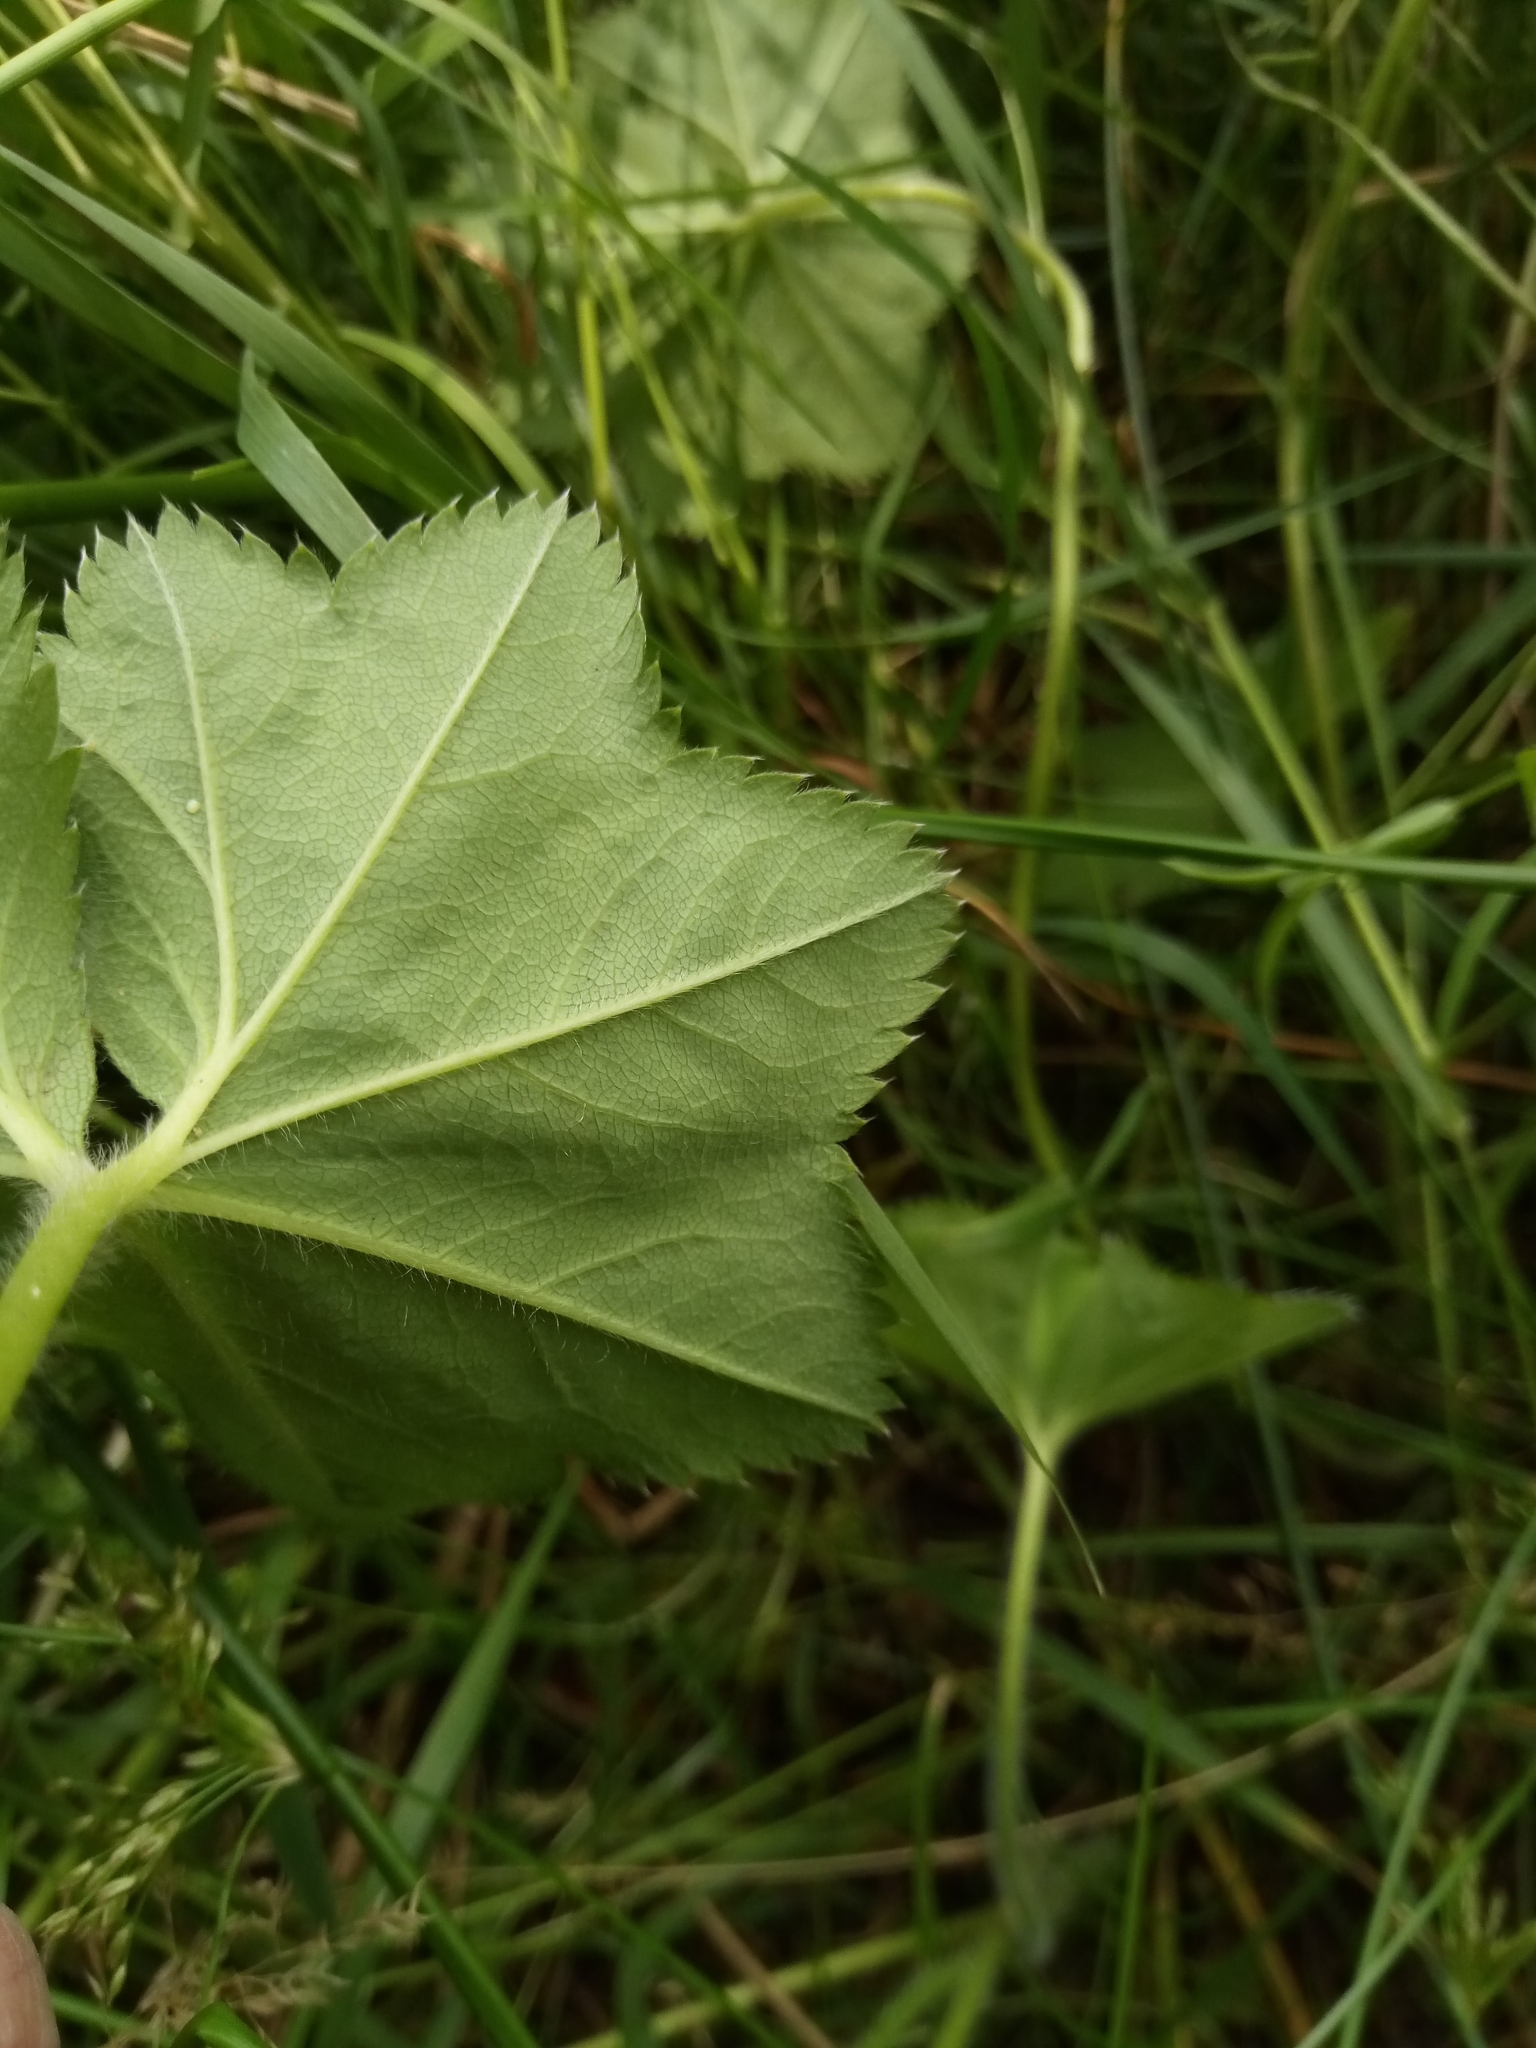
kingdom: Plantae
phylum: Tracheophyta
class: Magnoliopsida
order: Rosales
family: Rosaceae
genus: Alchemilla
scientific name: Alchemilla vulgaris
